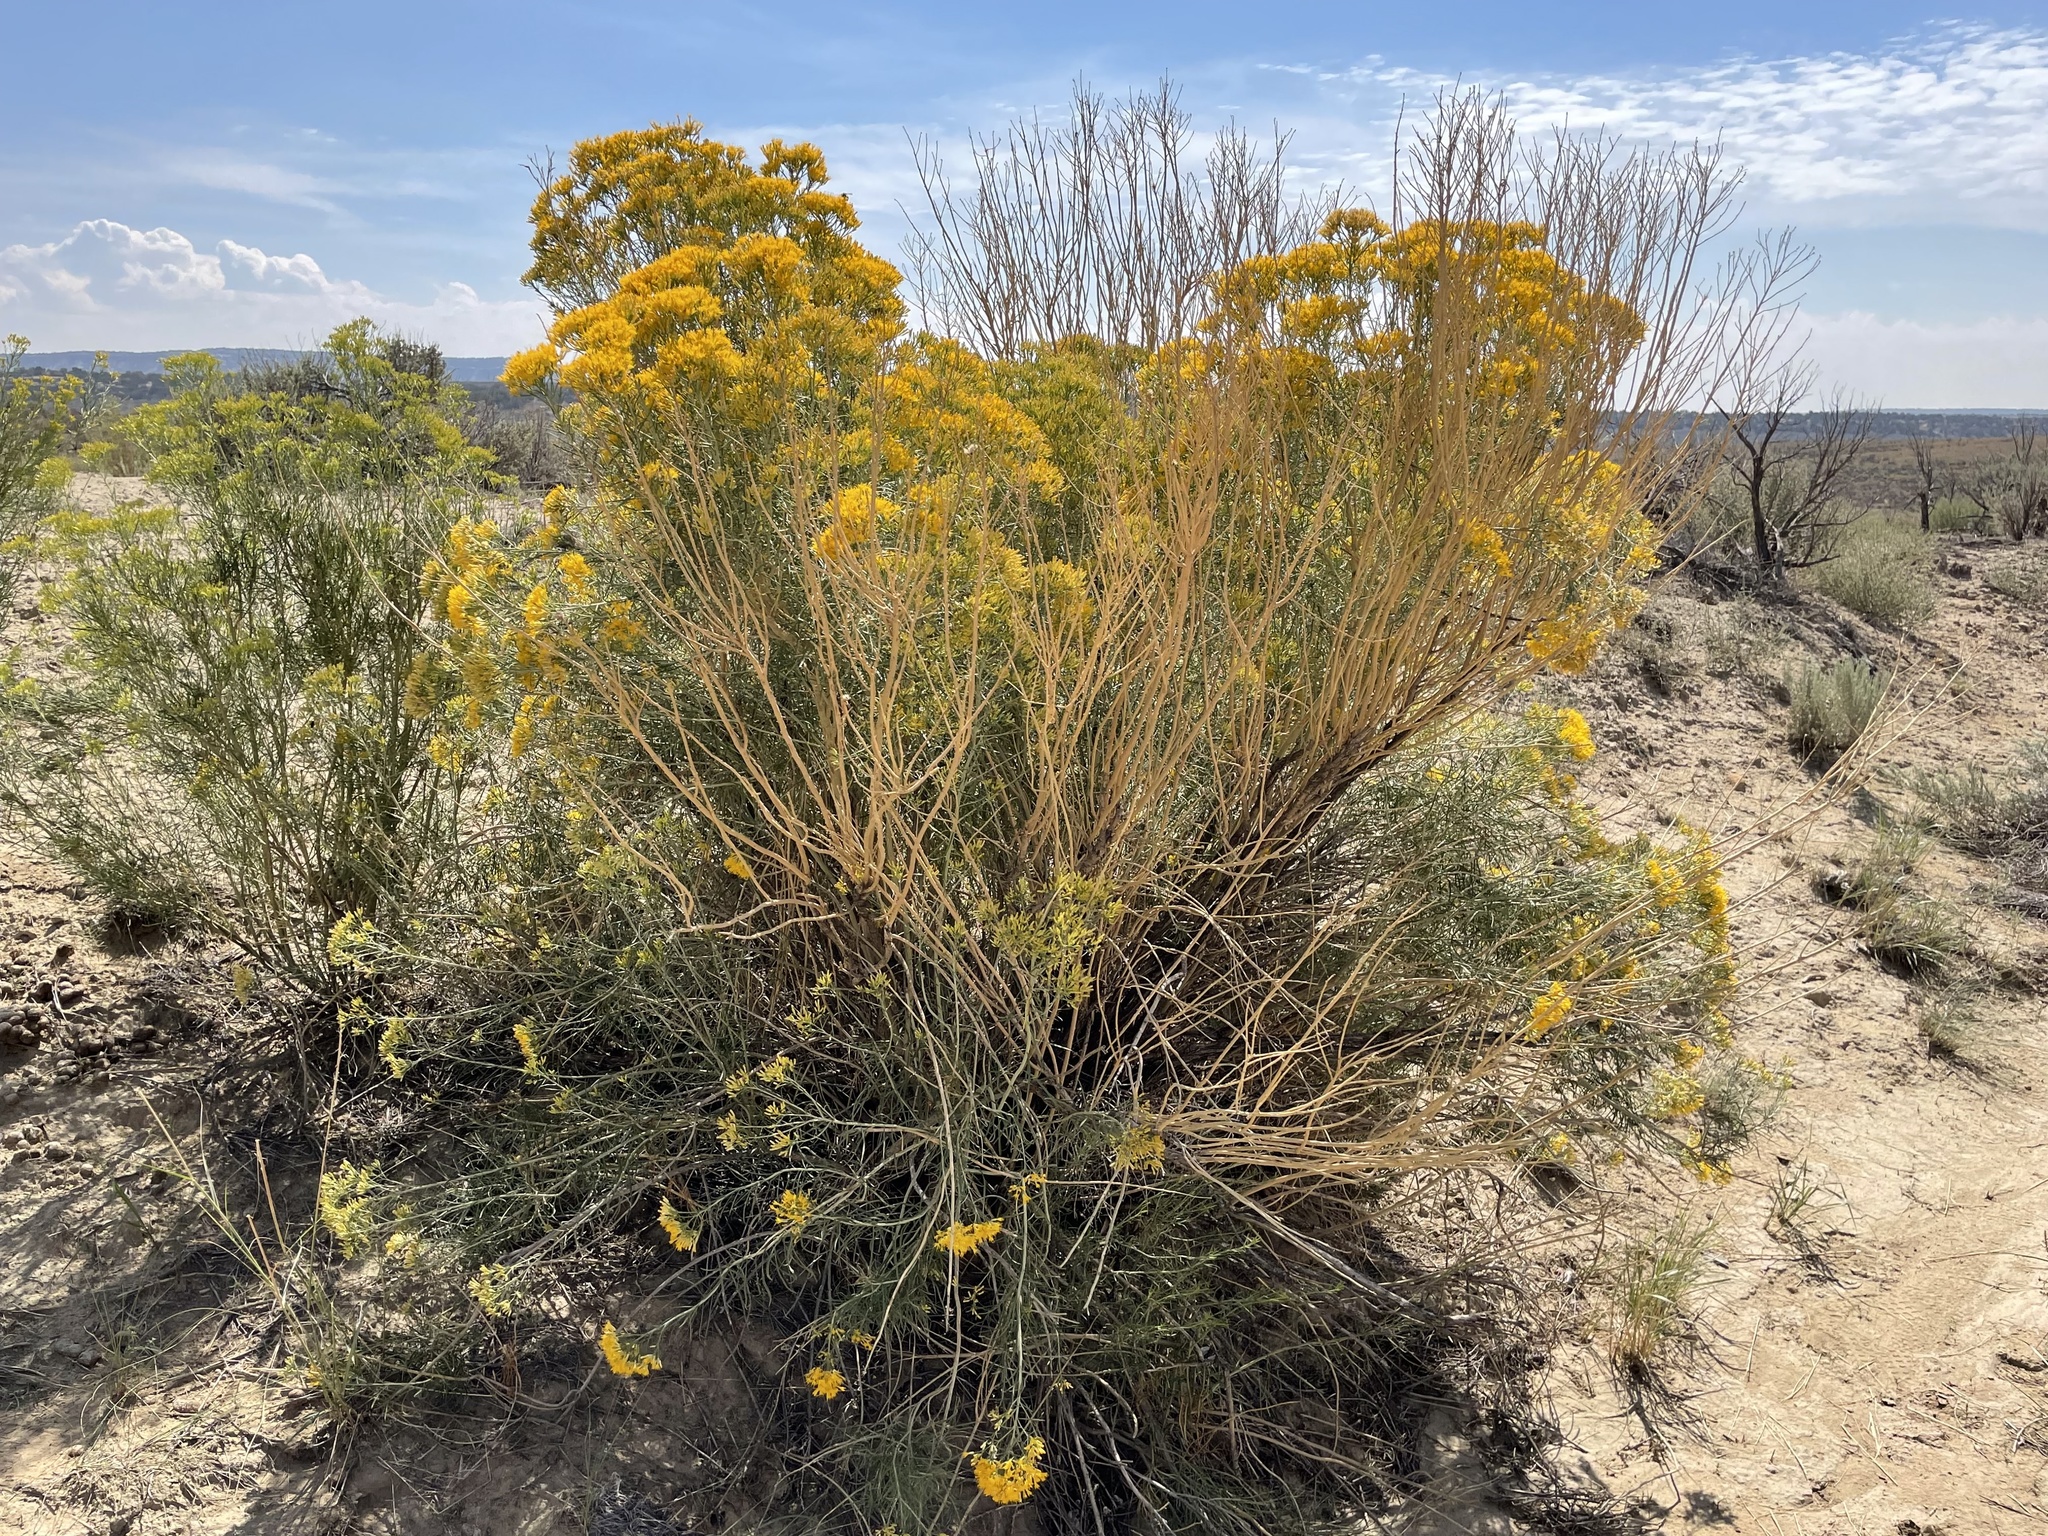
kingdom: Plantae
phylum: Tracheophyta
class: Magnoliopsida
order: Asterales
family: Asteraceae
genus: Ericameria
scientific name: Ericameria nauseosa
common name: Rubber rabbitbrush
